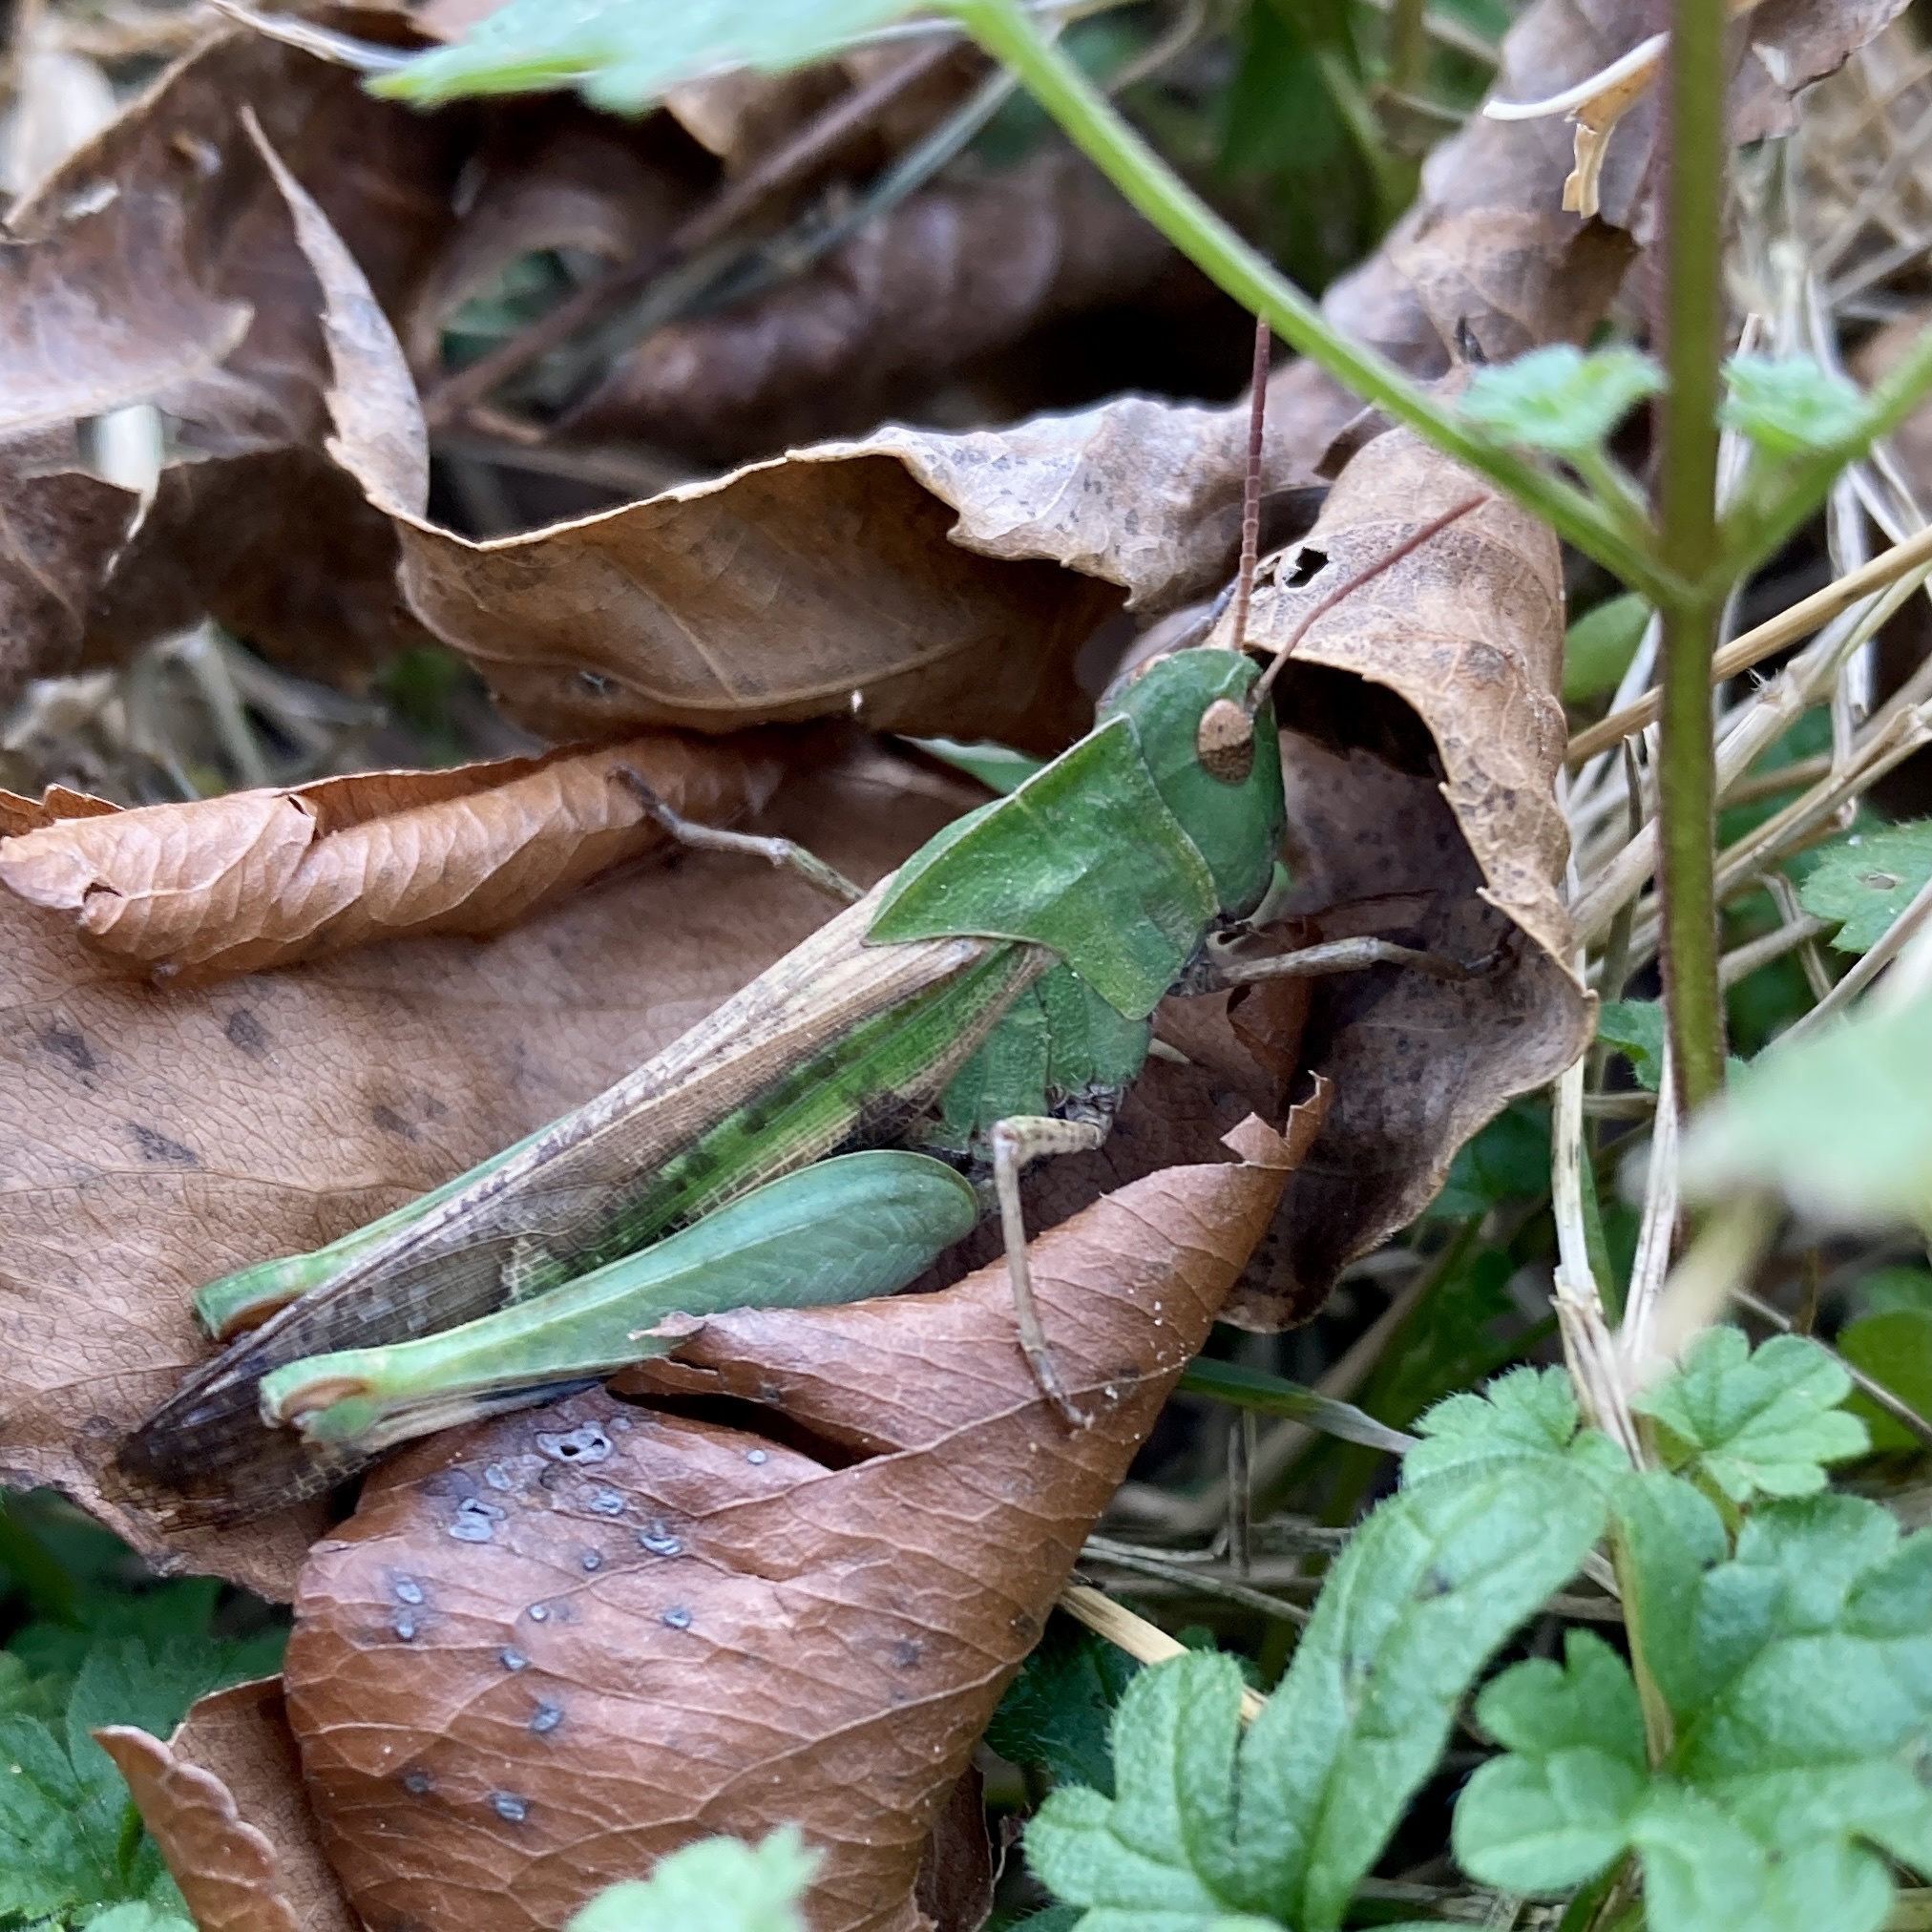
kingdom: Animalia
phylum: Arthropoda
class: Insecta
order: Orthoptera
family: Acrididae
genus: Chortophaga
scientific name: Chortophaga viridifasciata
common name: Green-striped grasshopper
